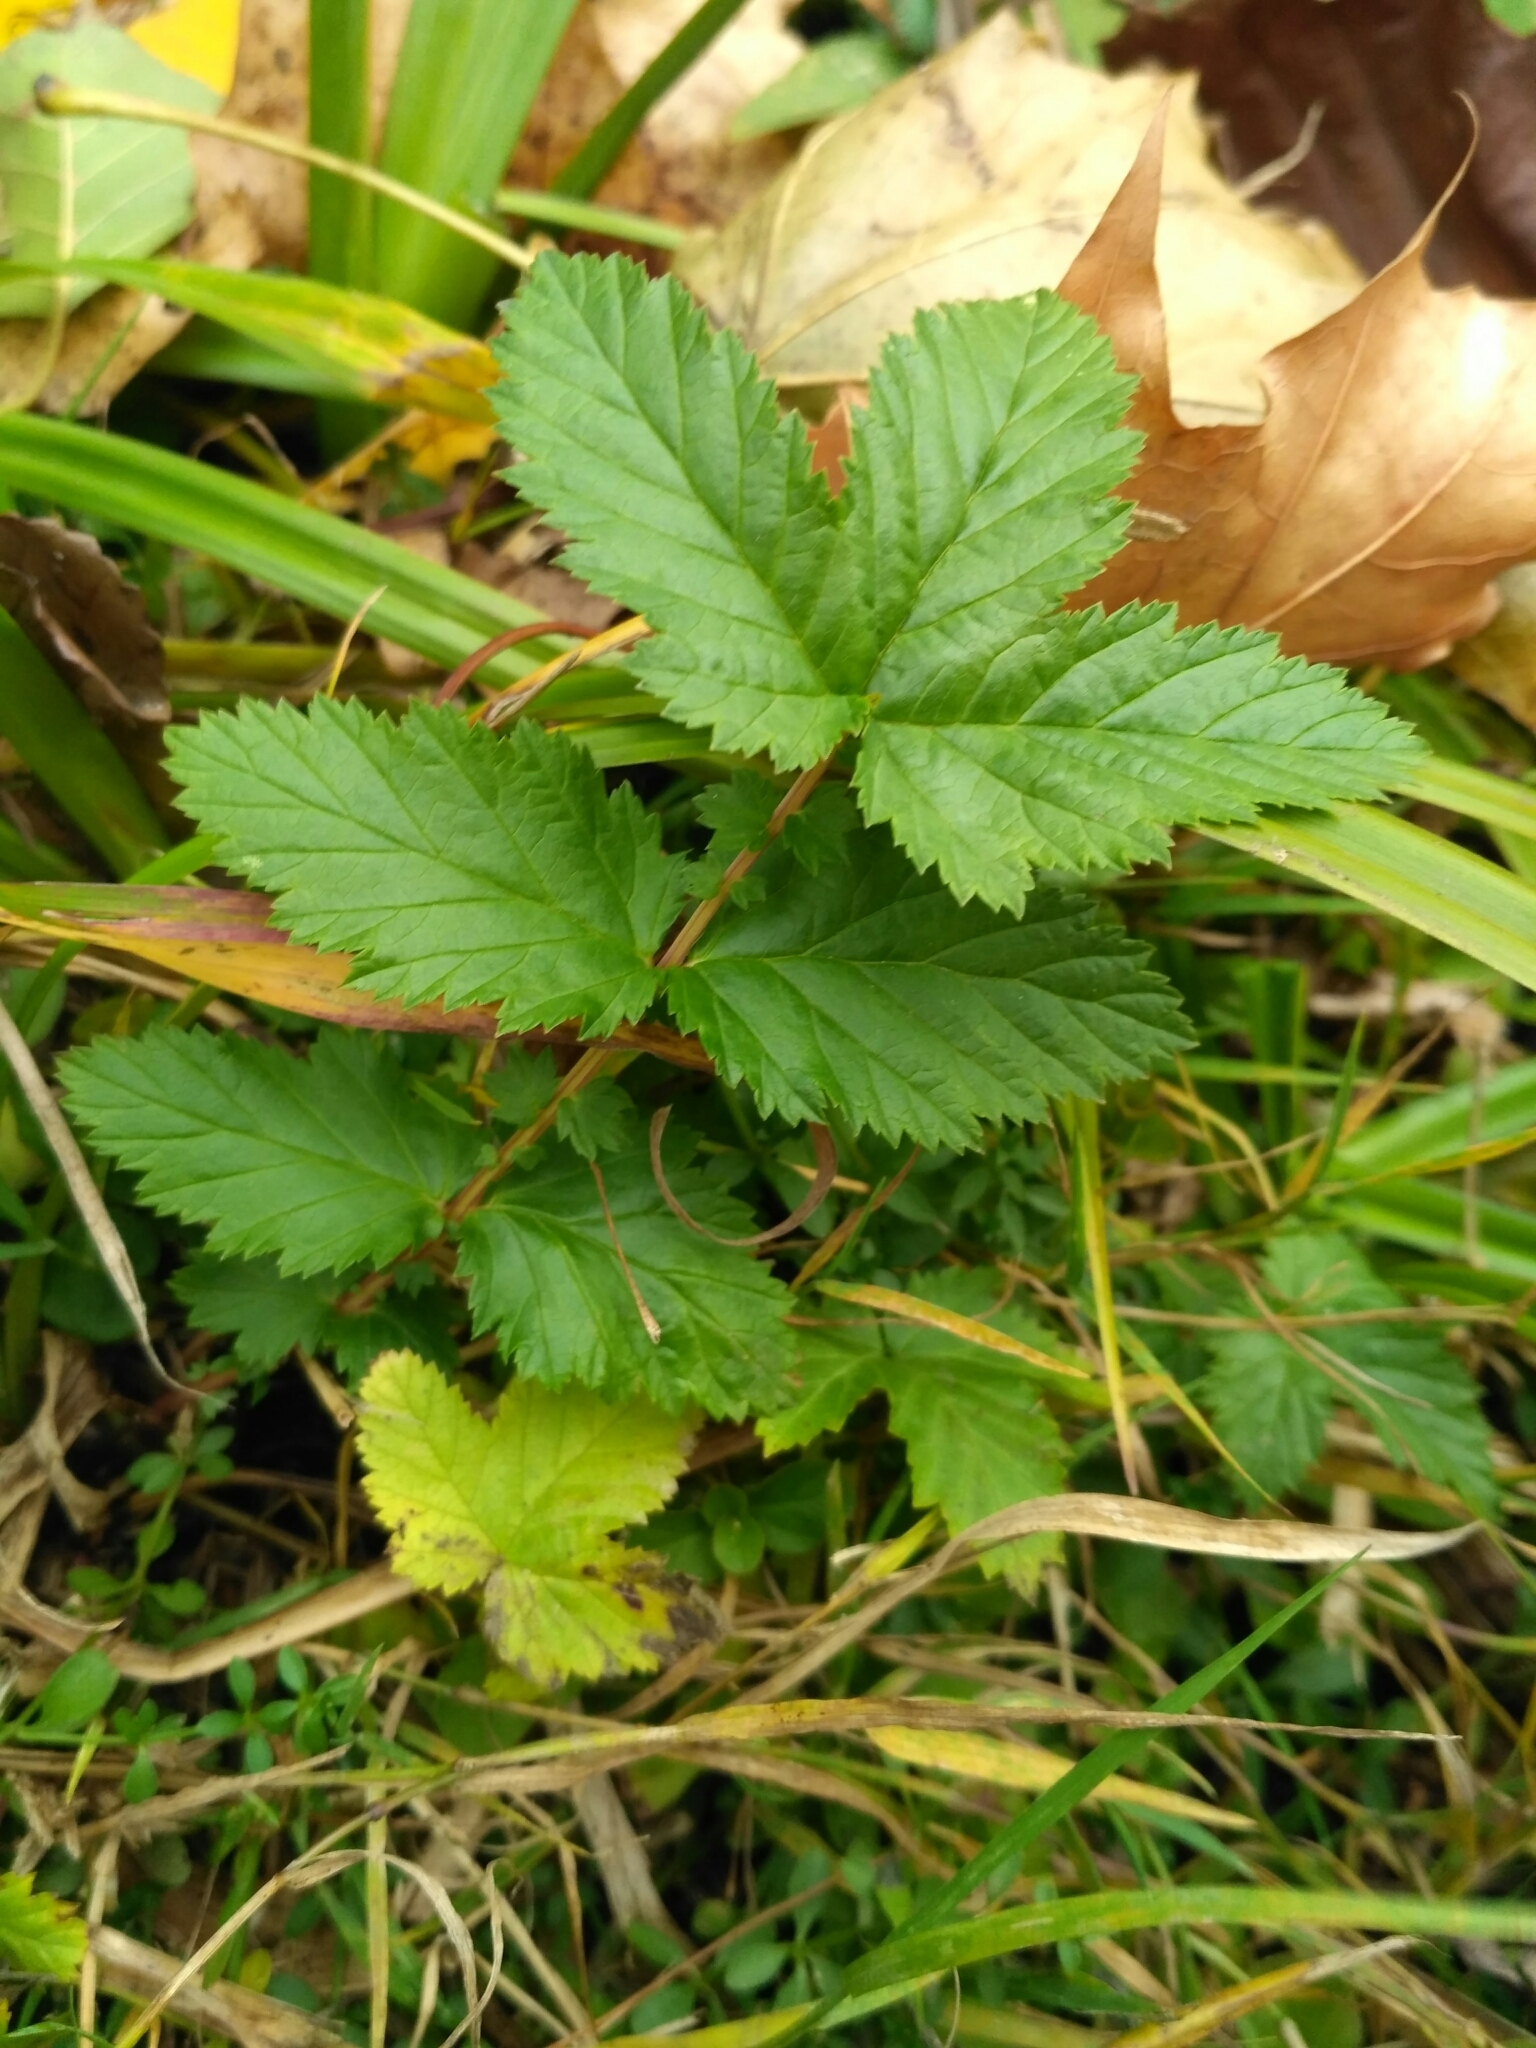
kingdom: Plantae
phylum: Tracheophyta
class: Magnoliopsida
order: Rosales
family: Rosaceae
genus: Filipendula
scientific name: Filipendula ulmaria
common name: Meadowsweet
